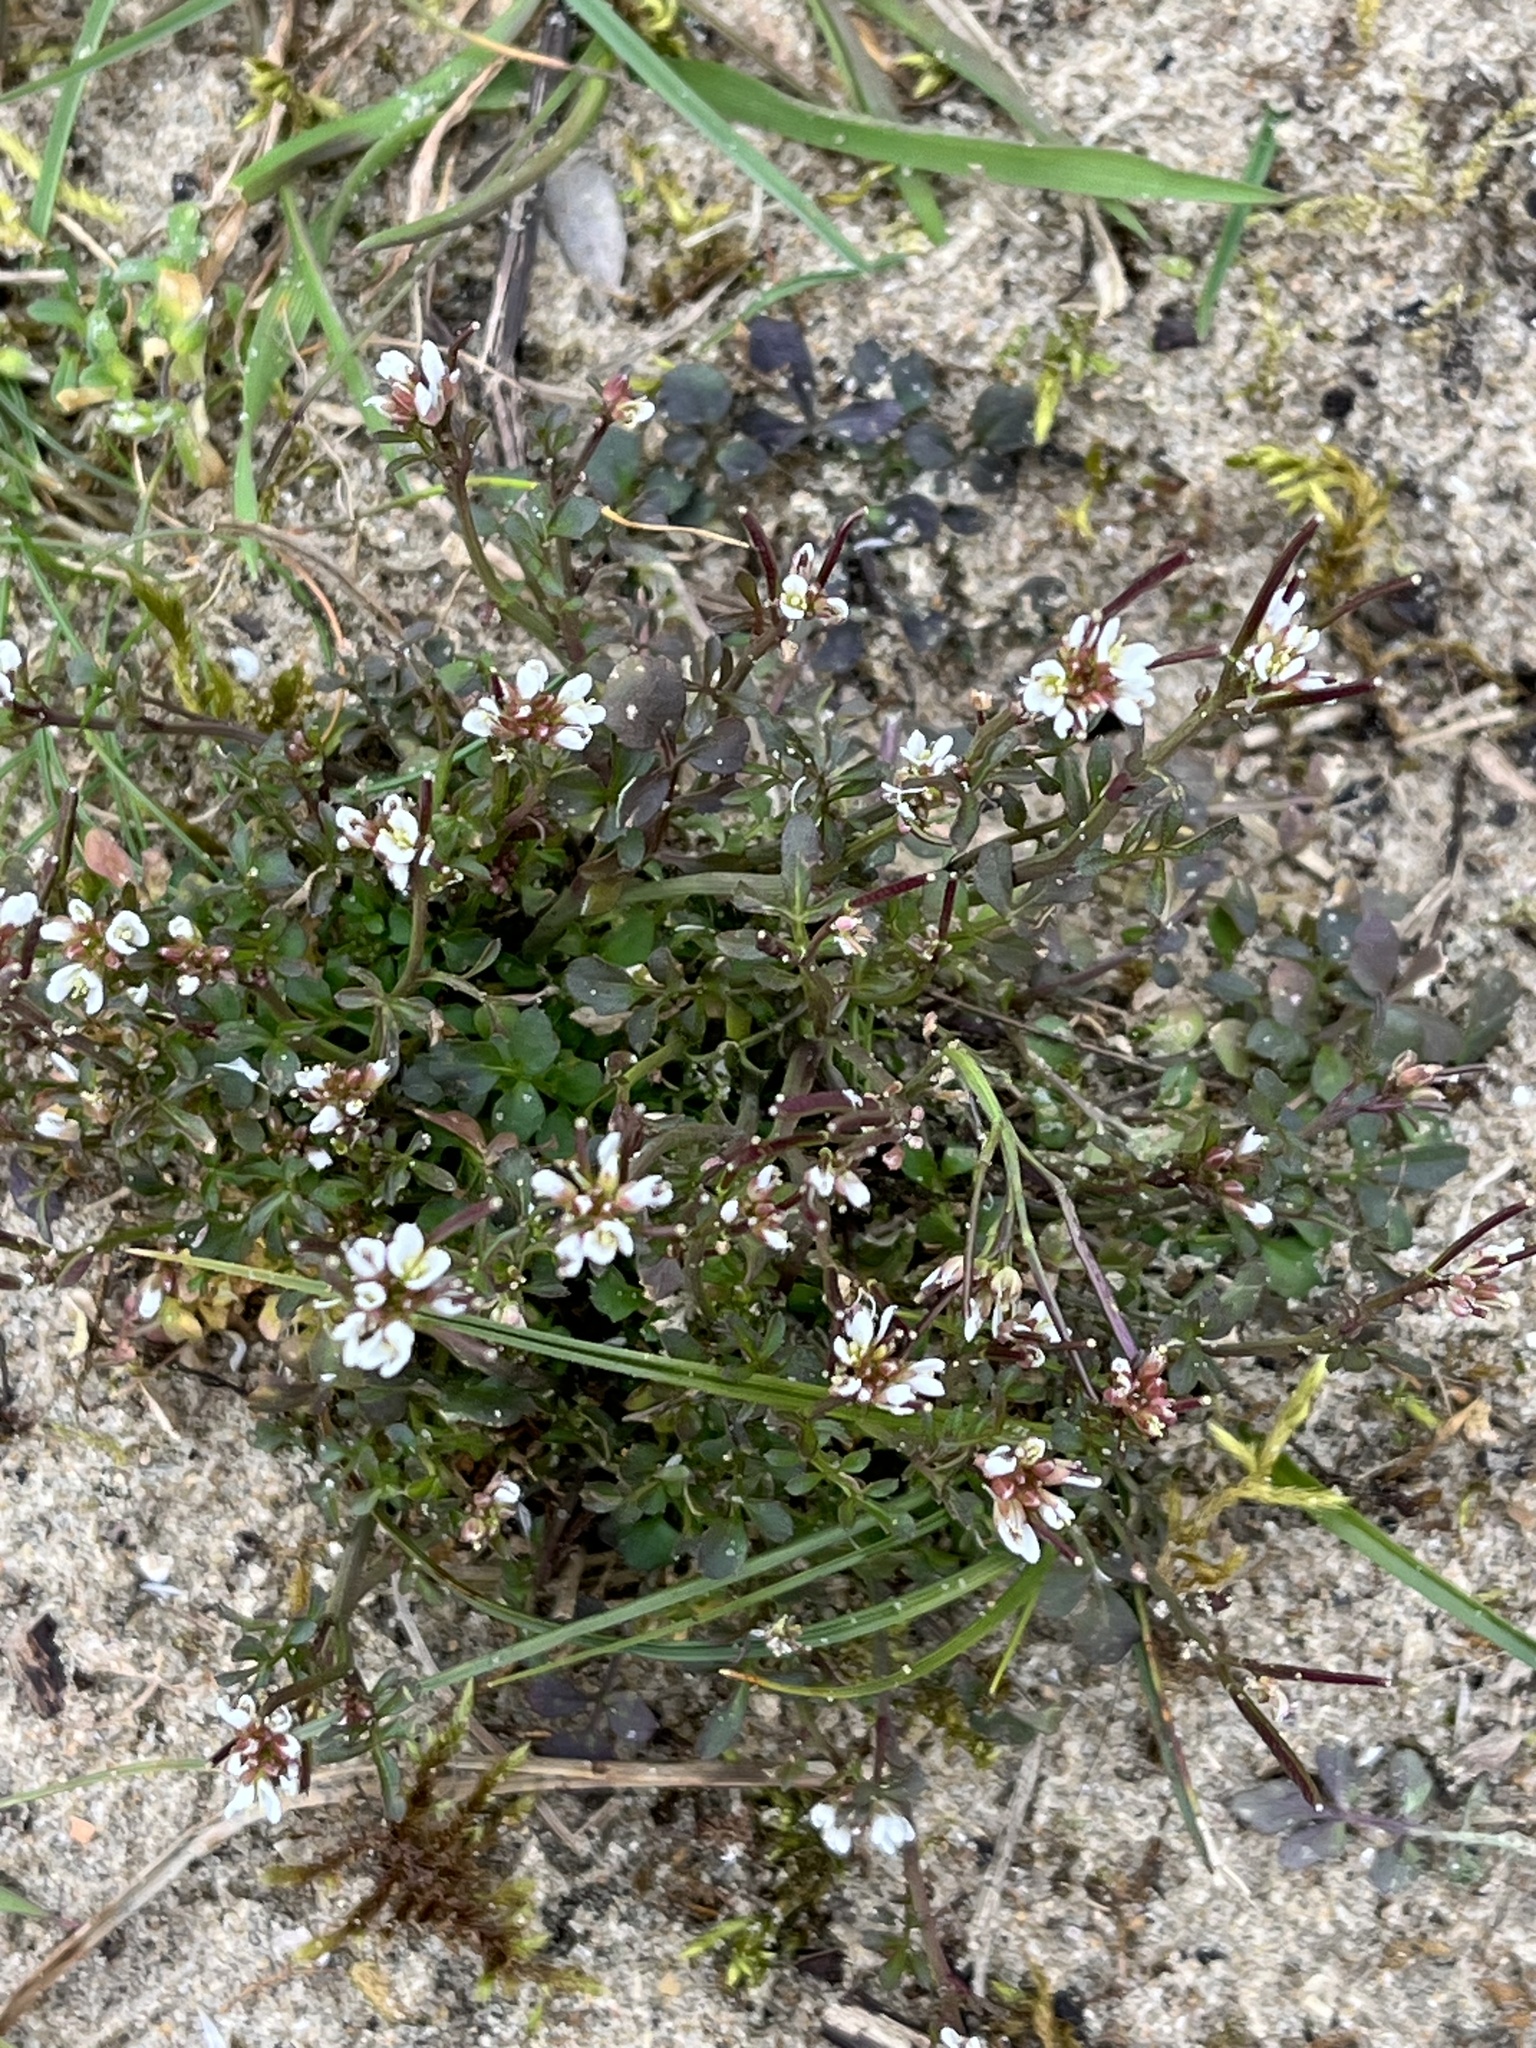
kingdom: Plantae
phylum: Tracheophyta
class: Magnoliopsida
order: Brassicales
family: Brassicaceae
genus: Cardamine
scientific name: Cardamine hirsuta
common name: Hairy bittercress
